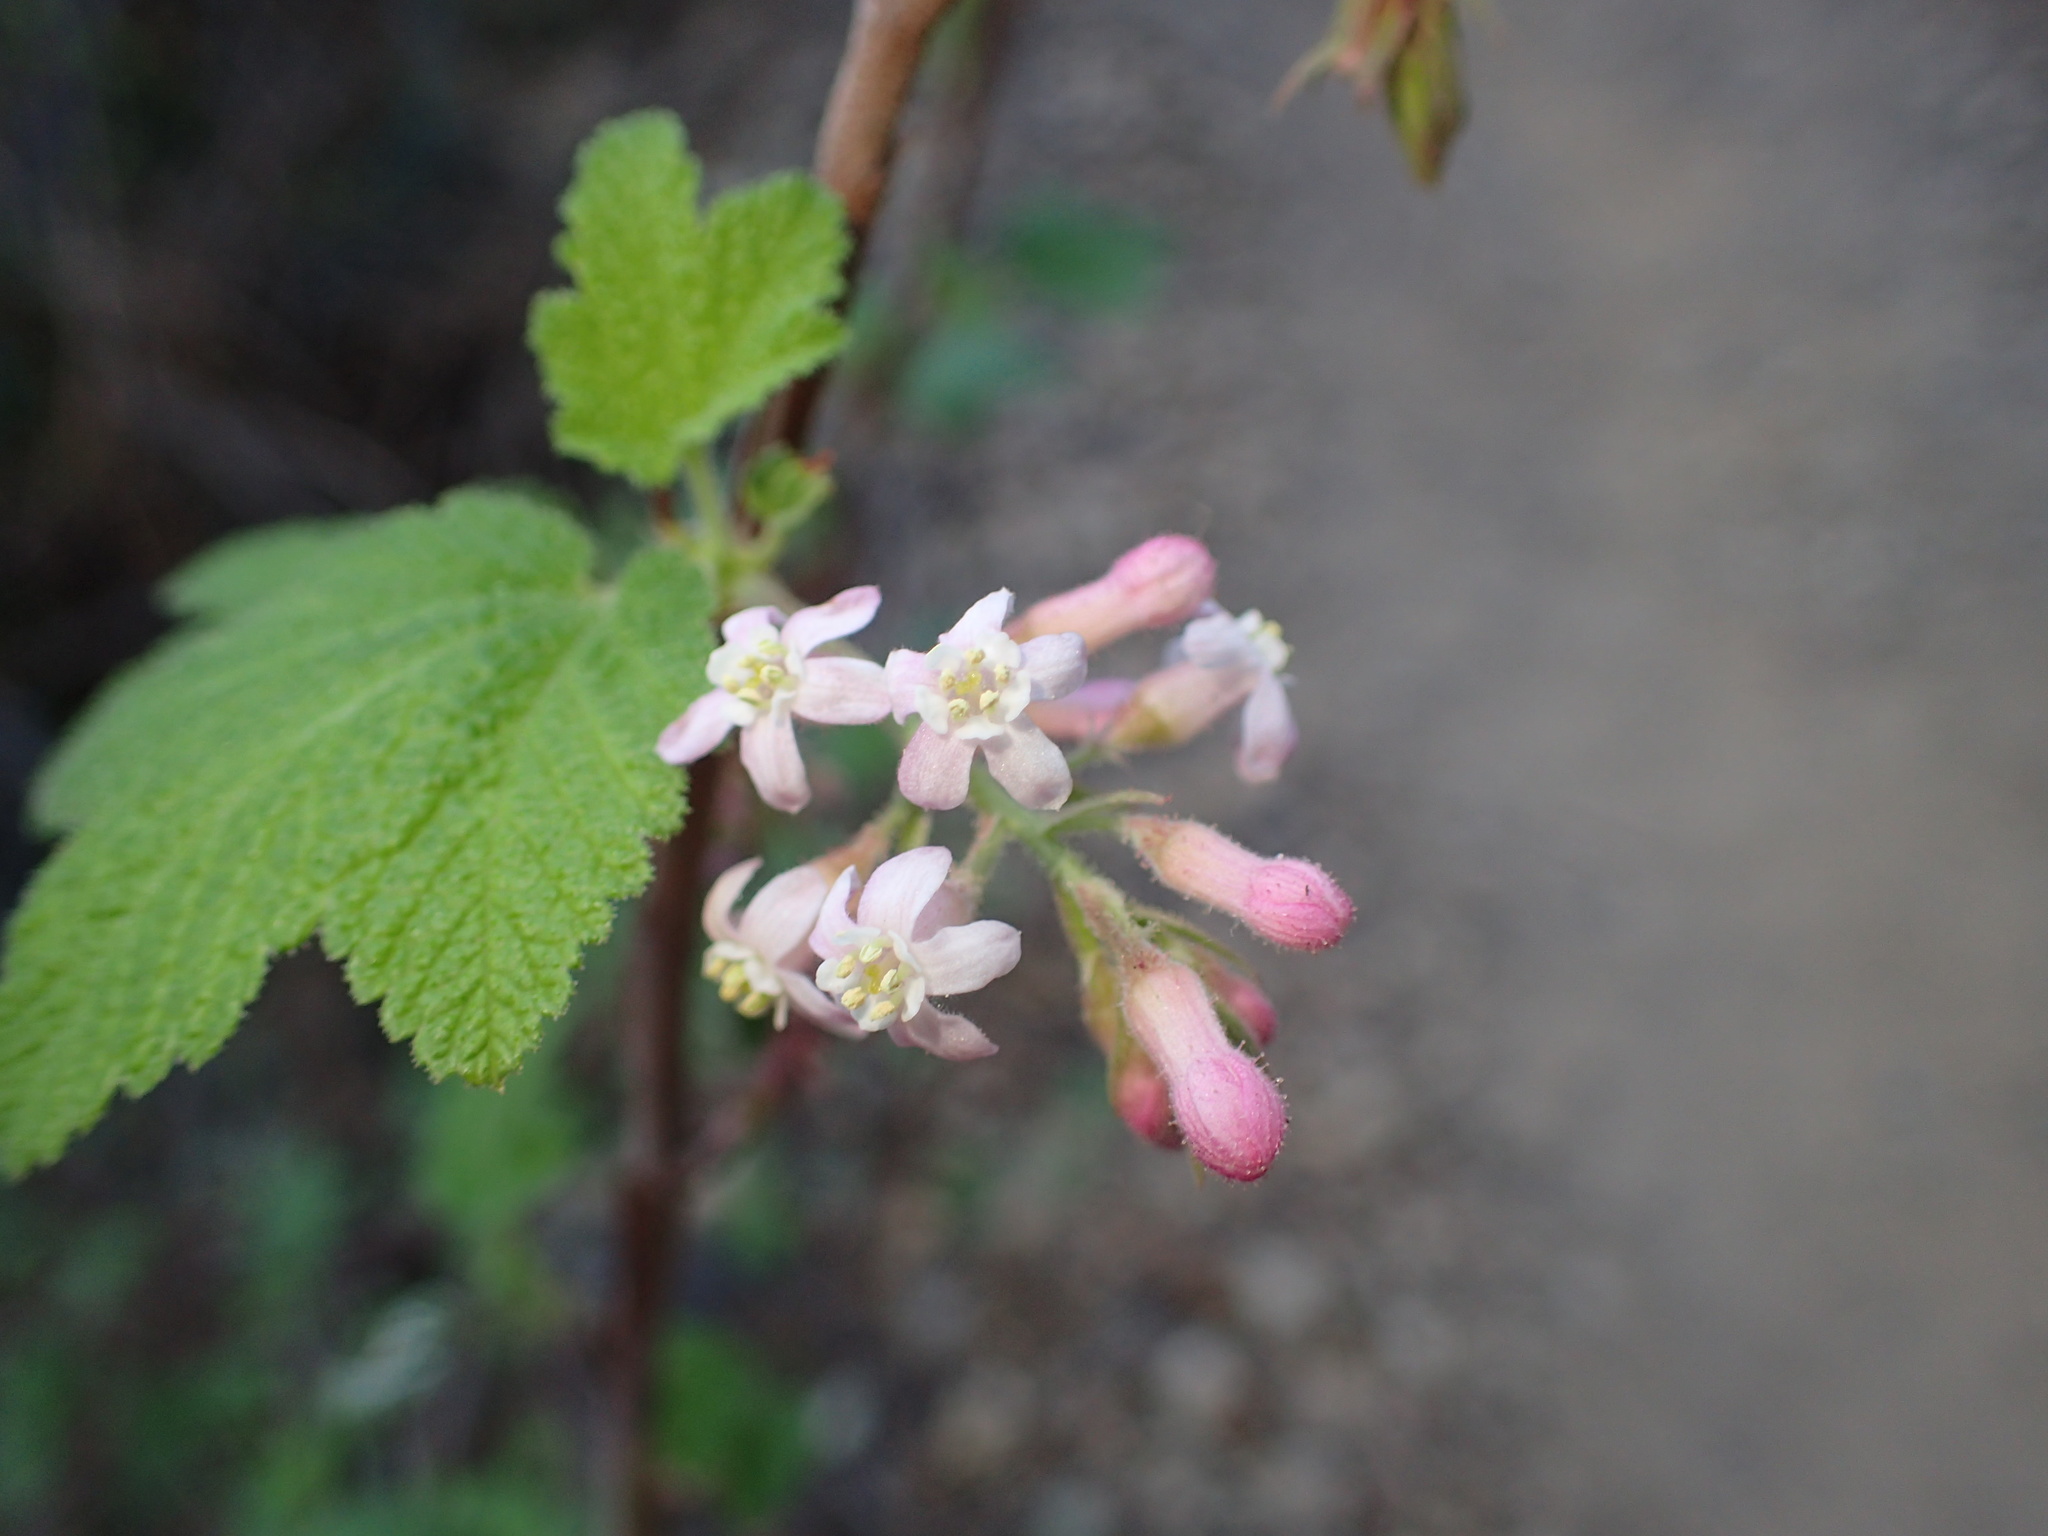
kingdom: Plantae
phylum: Tracheophyta
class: Magnoliopsida
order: Saxifragales
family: Grossulariaceae
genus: Ribes
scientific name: Ribes malvaceum
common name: Chaparral currant
